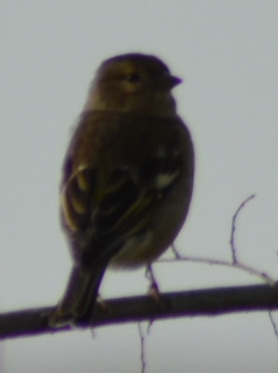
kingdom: Animalia
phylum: Chordata
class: Aves
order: Passeriformes
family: Fringillidae
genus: Fringilla
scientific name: Fringilla coelebs
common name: Common chaffinch
